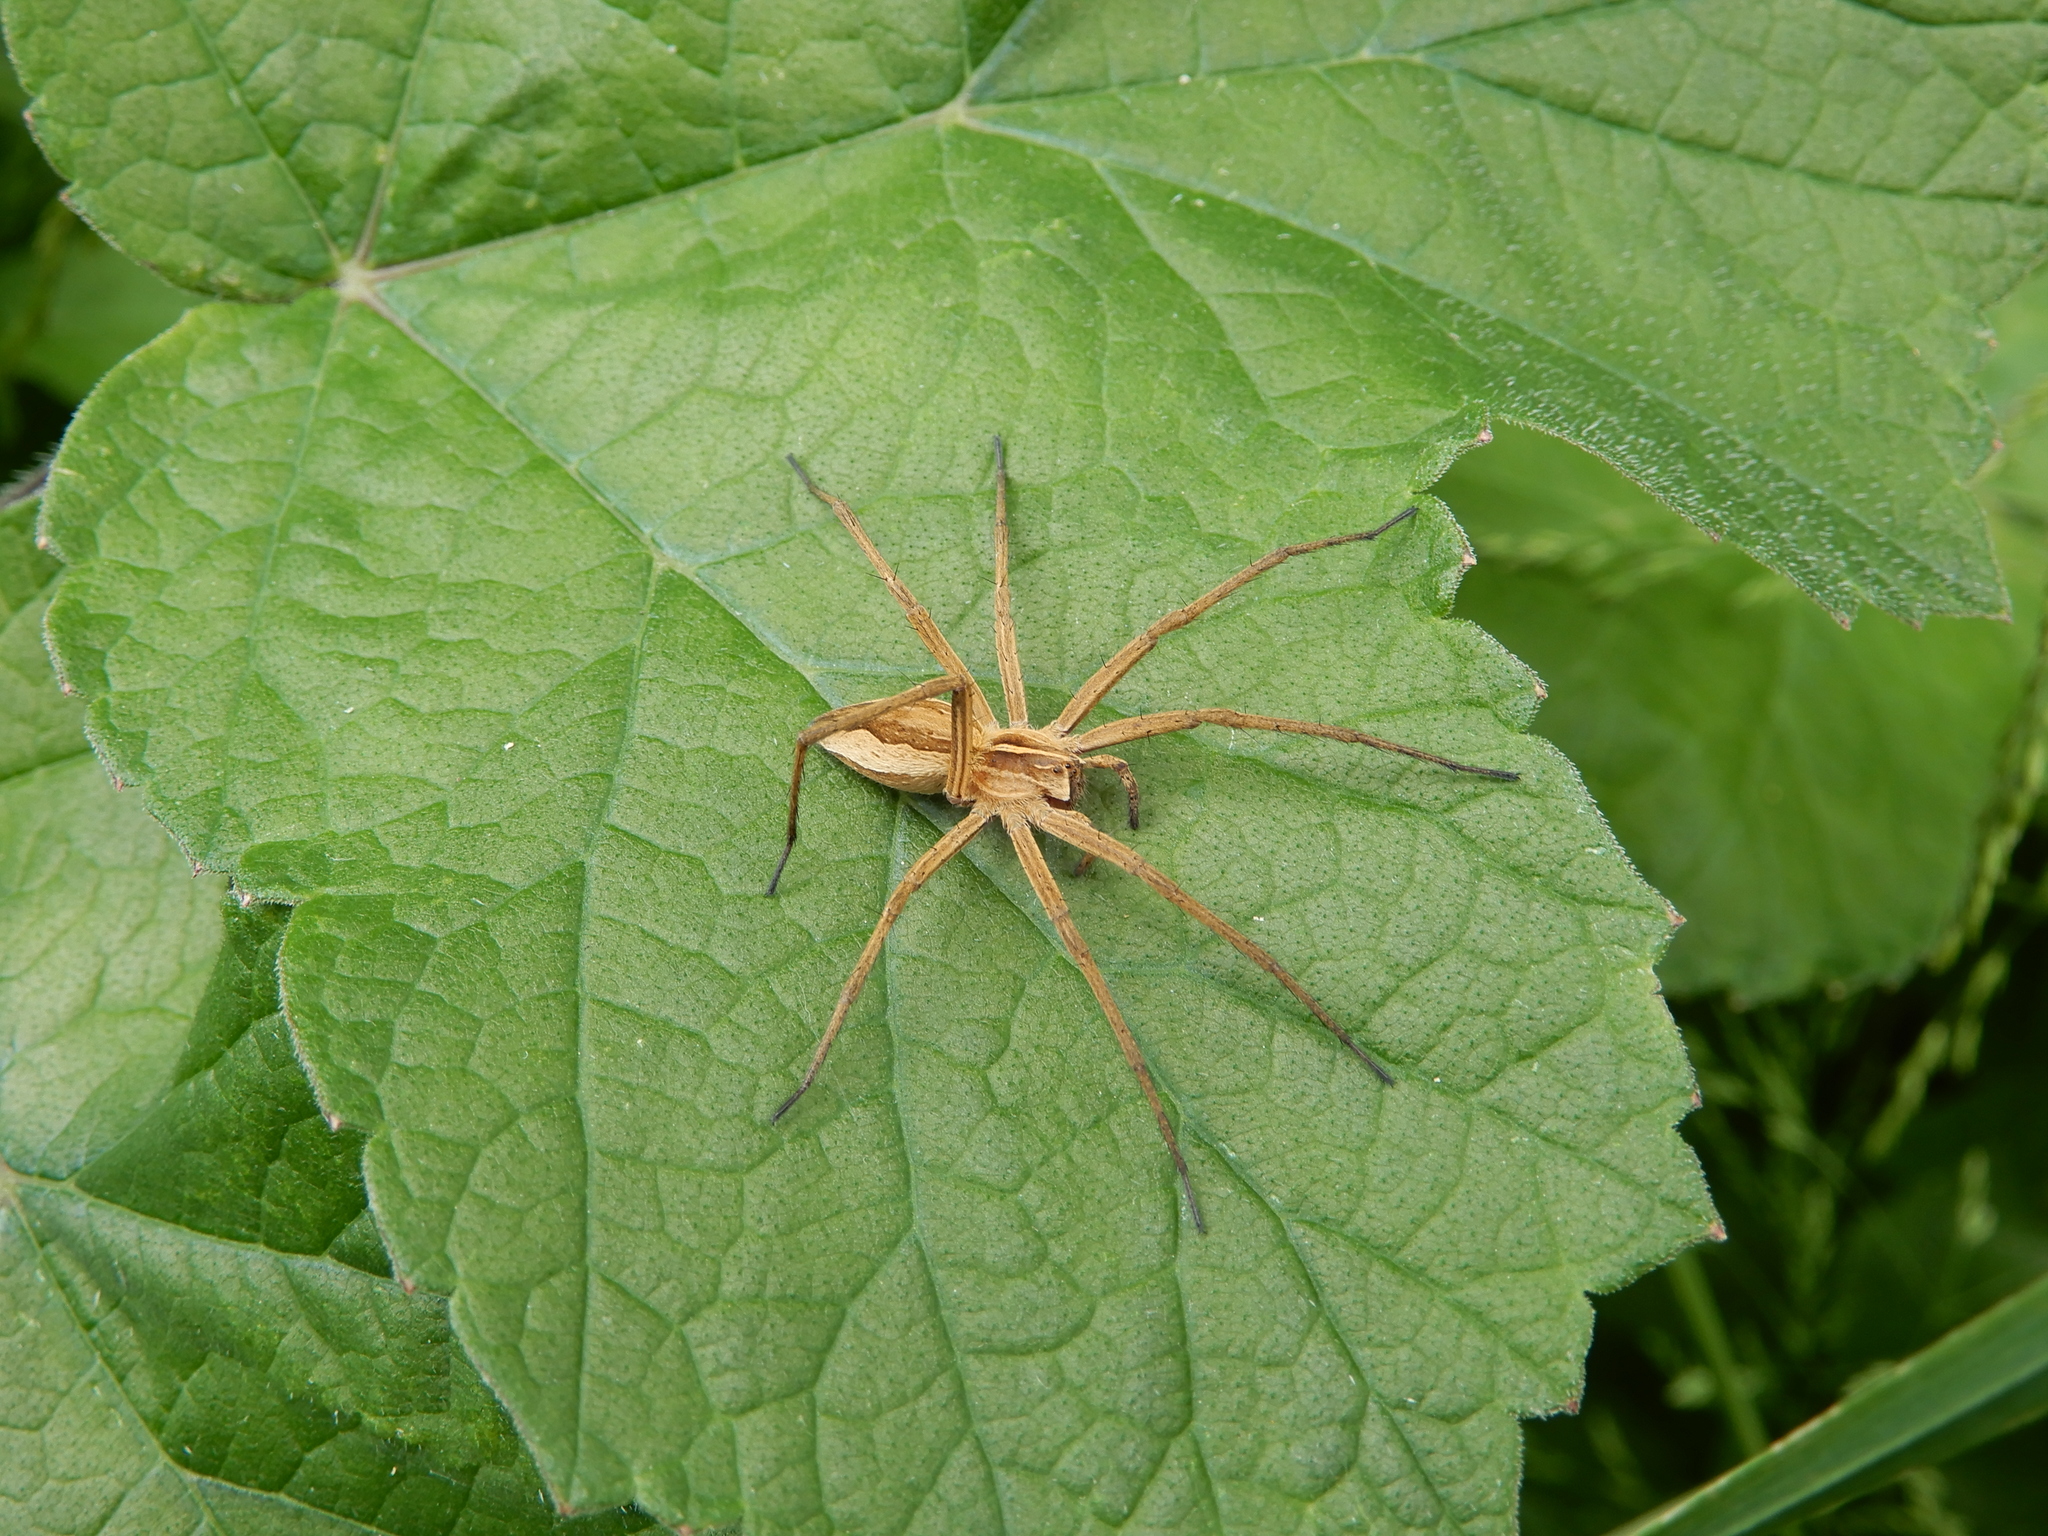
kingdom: Animalia
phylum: Arthropoda
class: Arachnida
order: Araneae
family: Pisauridae
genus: Pisaura
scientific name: Pisaura mirabilis
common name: Tent spider
